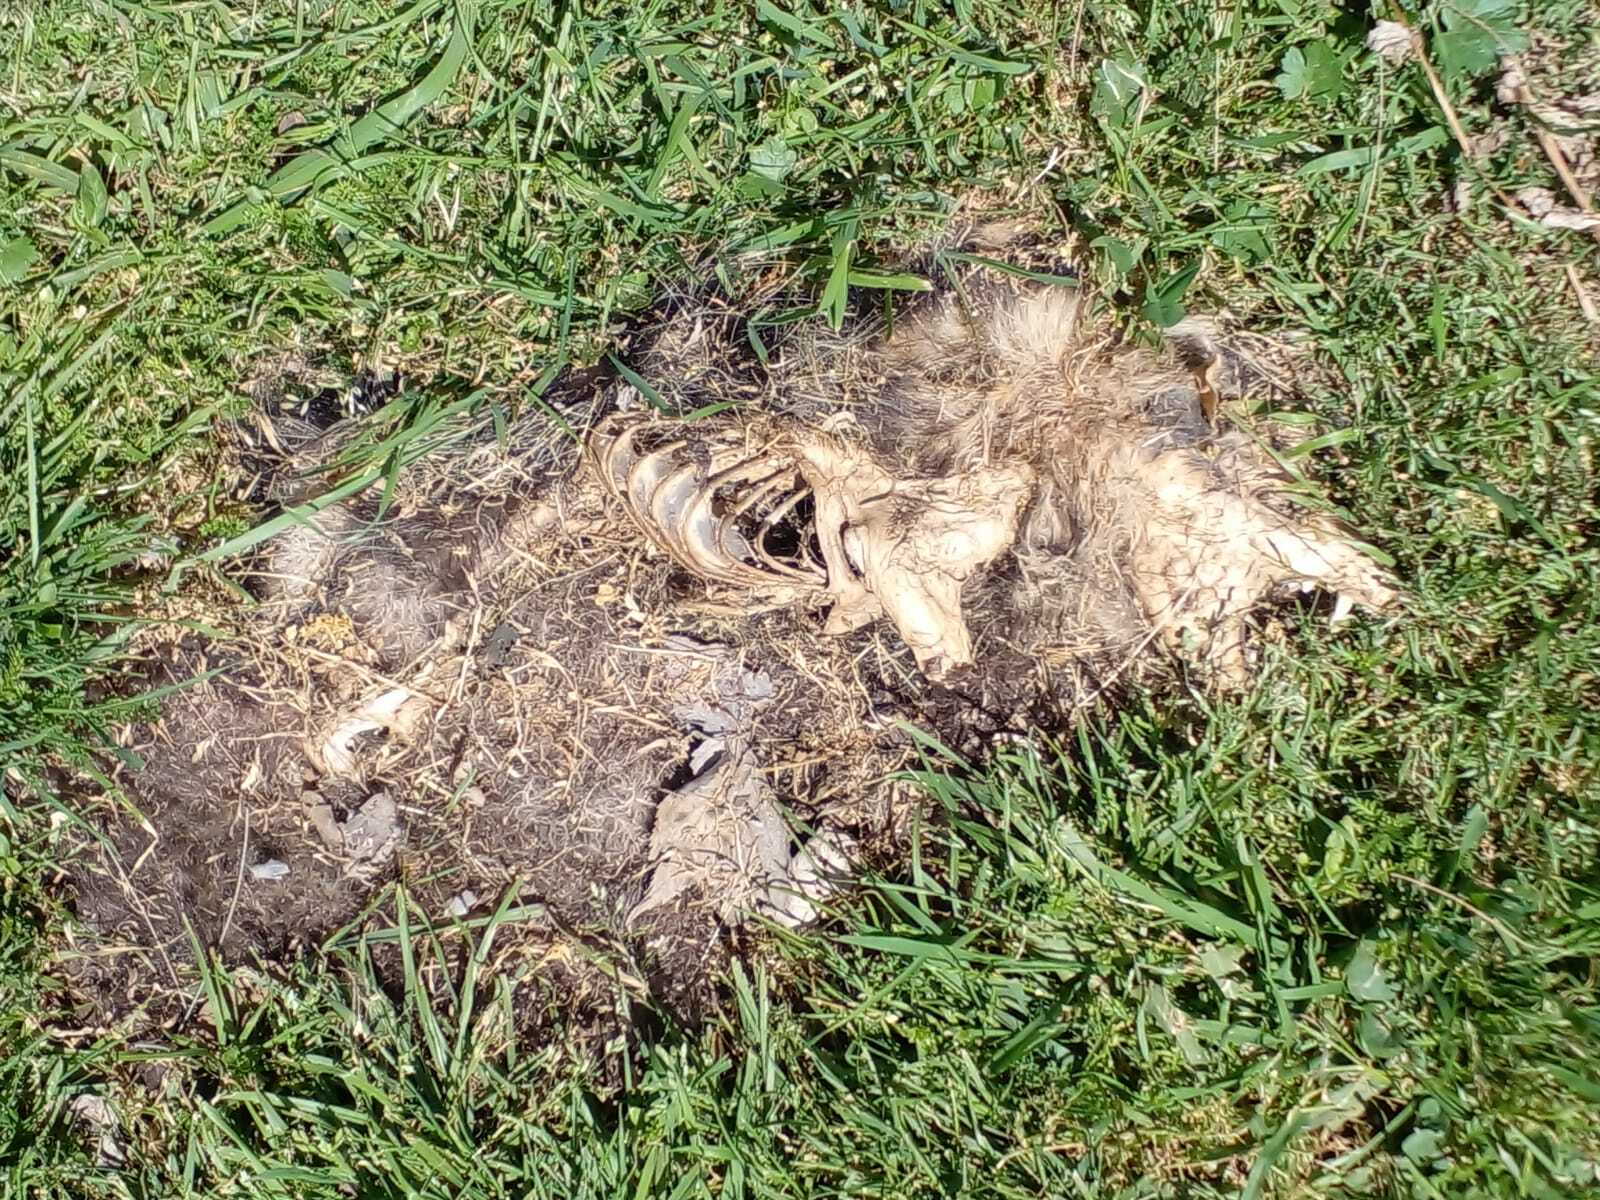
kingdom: Animalia
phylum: Chordata
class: Mammalia
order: Didelphimorphia
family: Didelphidae
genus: Didelphis
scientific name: Didelphis albiventris
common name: White-eared opossum
